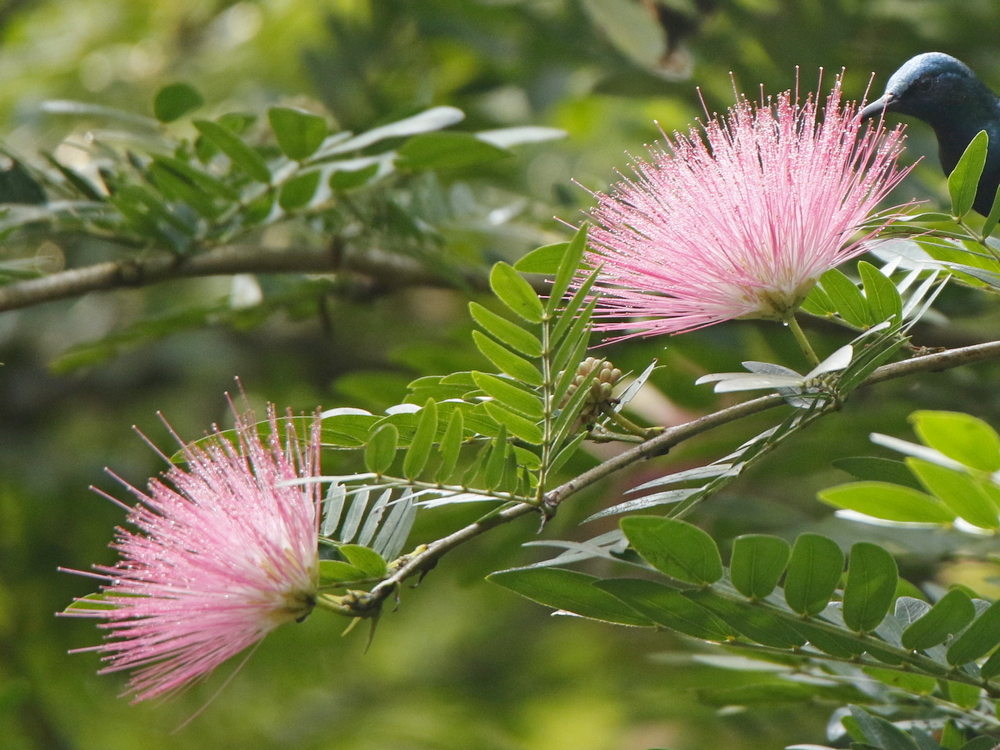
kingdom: Plantae
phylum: Tracheophyta
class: Magnoliopsida
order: Fabales
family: Fabaceae
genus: Albizia
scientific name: Albizia julibrissin
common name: Silktree
